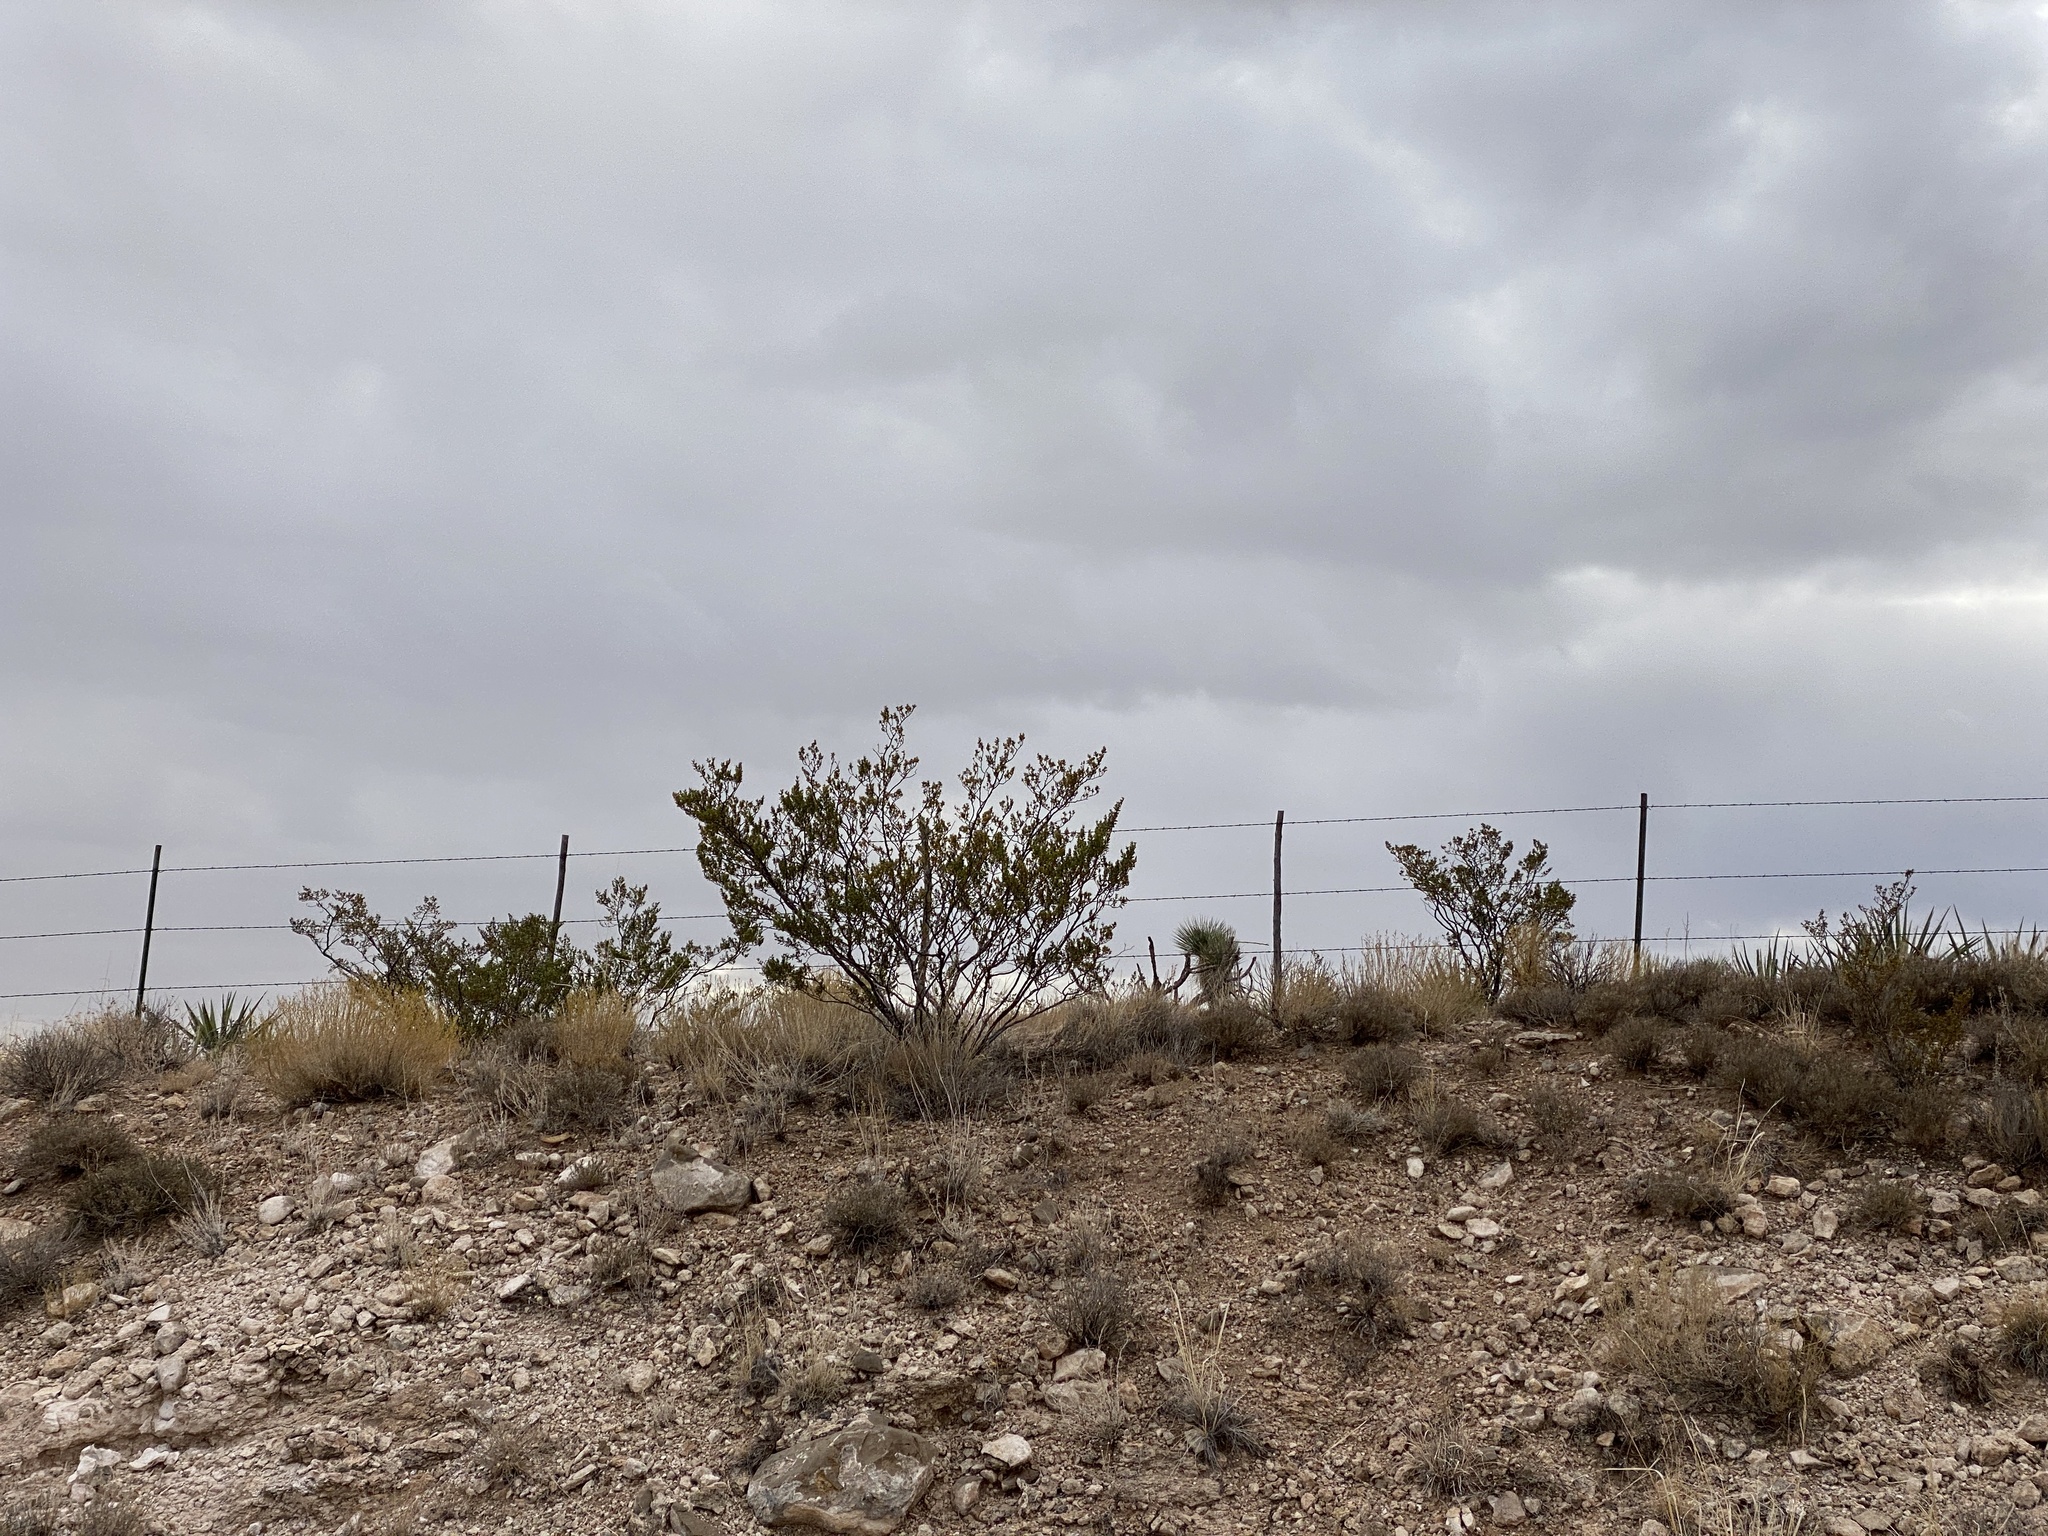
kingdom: Plantae
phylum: Tracheophyta
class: Magnoliopsida
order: Zygophyllales
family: Zygophyllaceae
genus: Larrea
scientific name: Larrea tridentata
